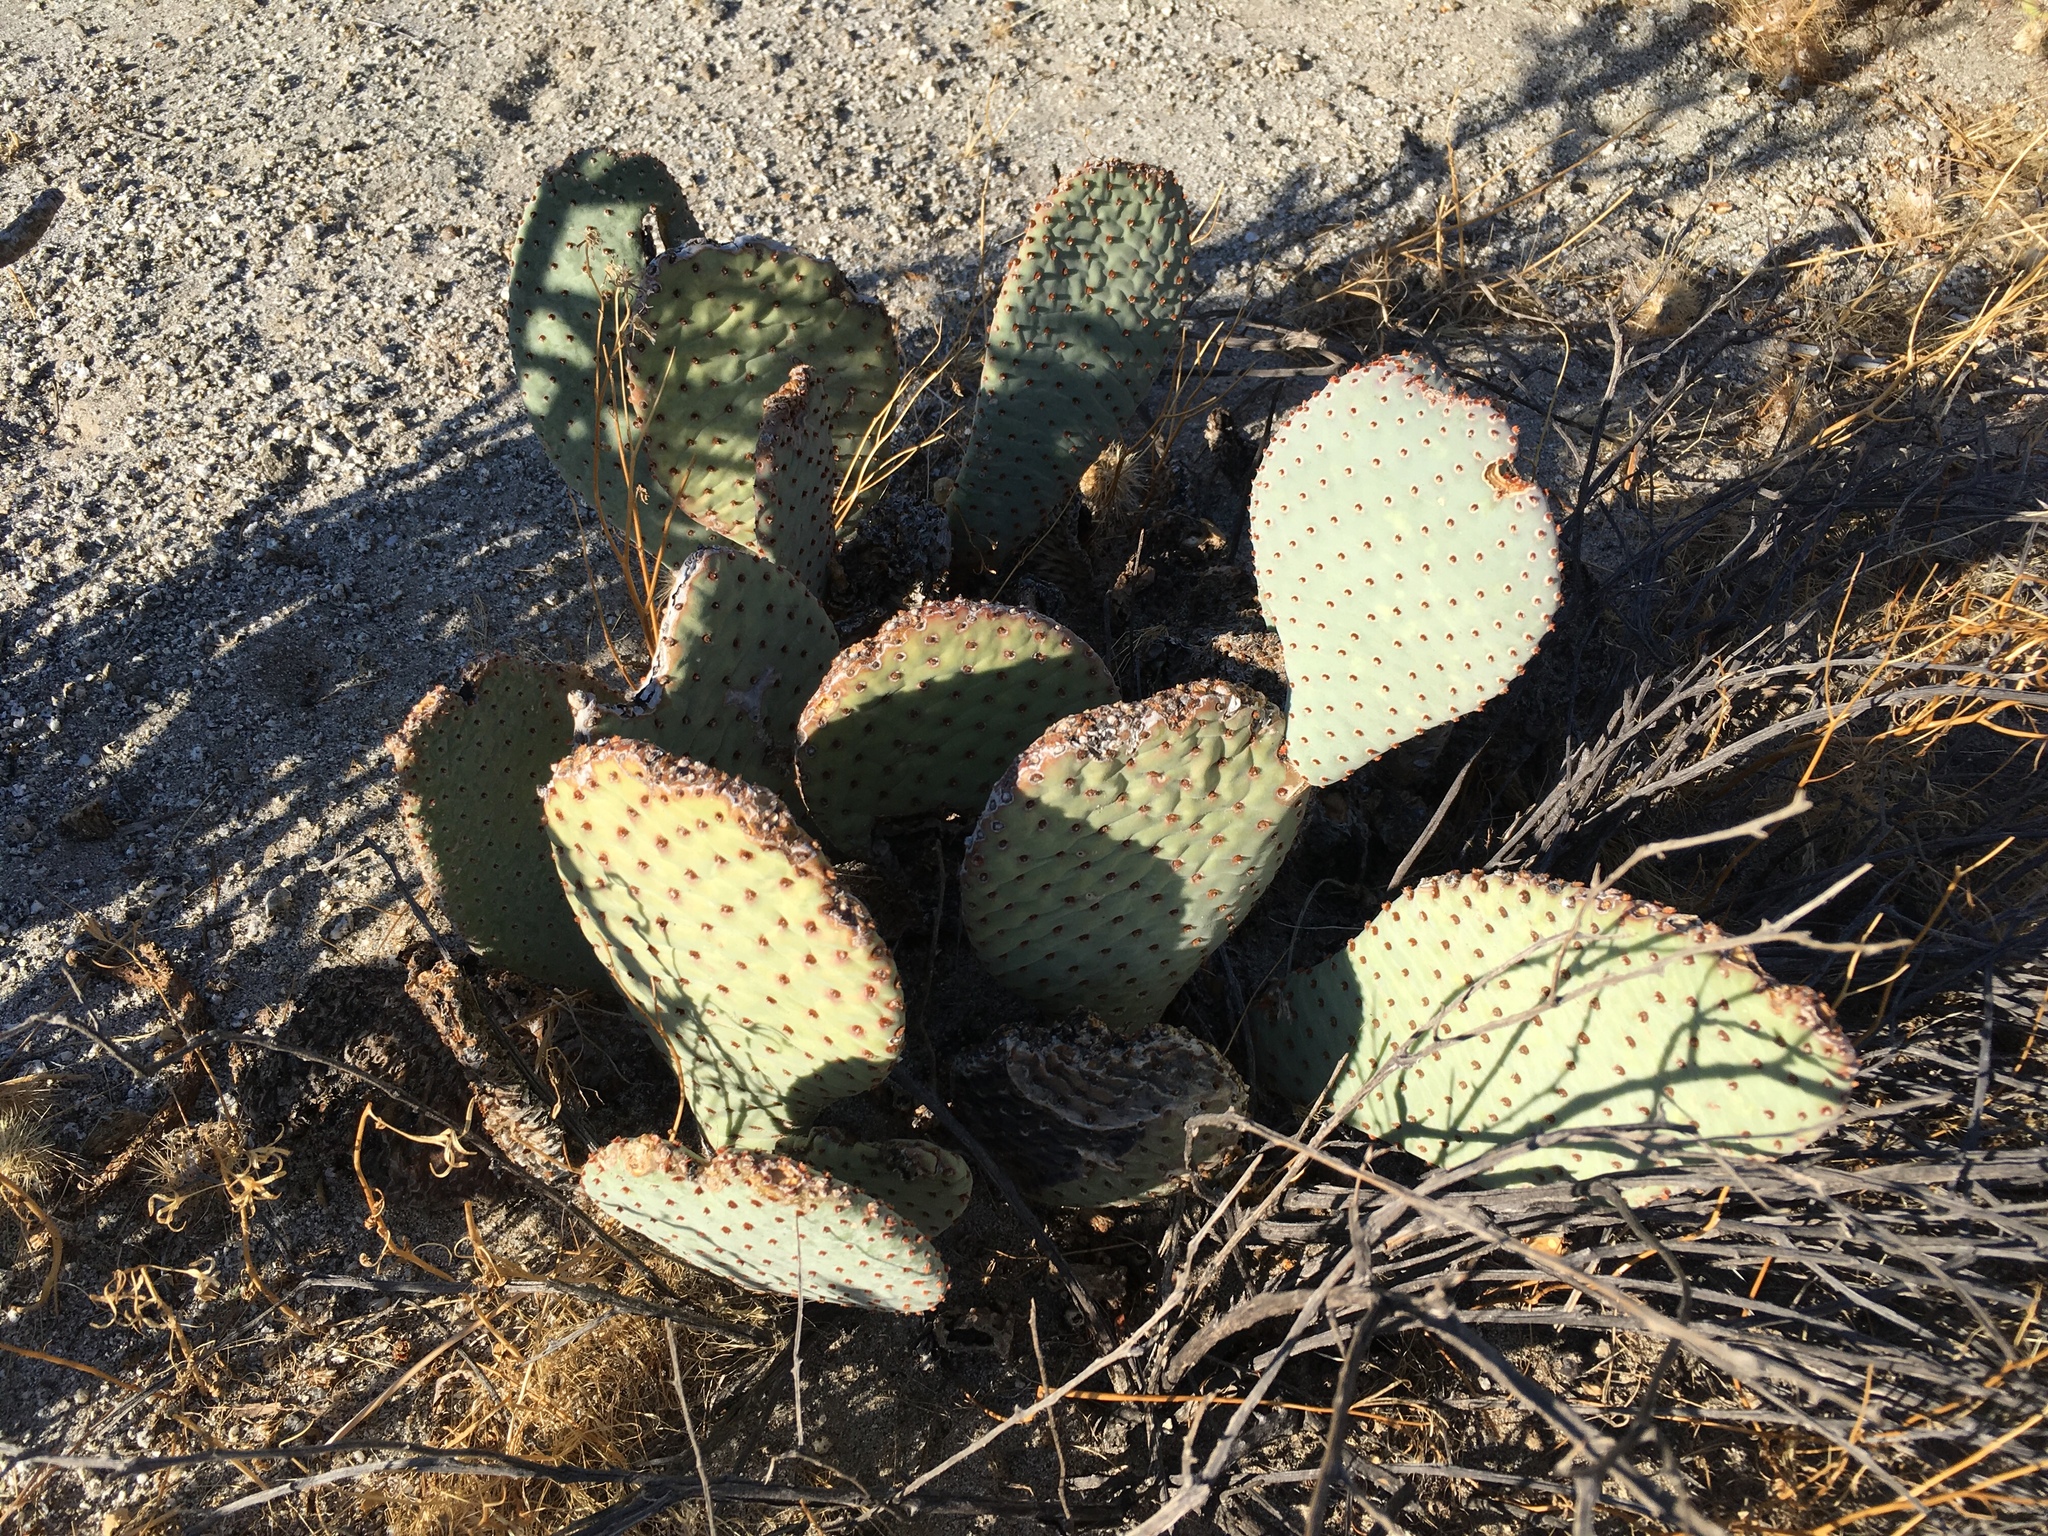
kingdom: Plantae
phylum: Tracheophyta
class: Magnoliopsida
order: Caryophyllales
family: Cactaceae
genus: Opuntia
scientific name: Opuntia basilaris
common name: Beavertail prickly-pear
